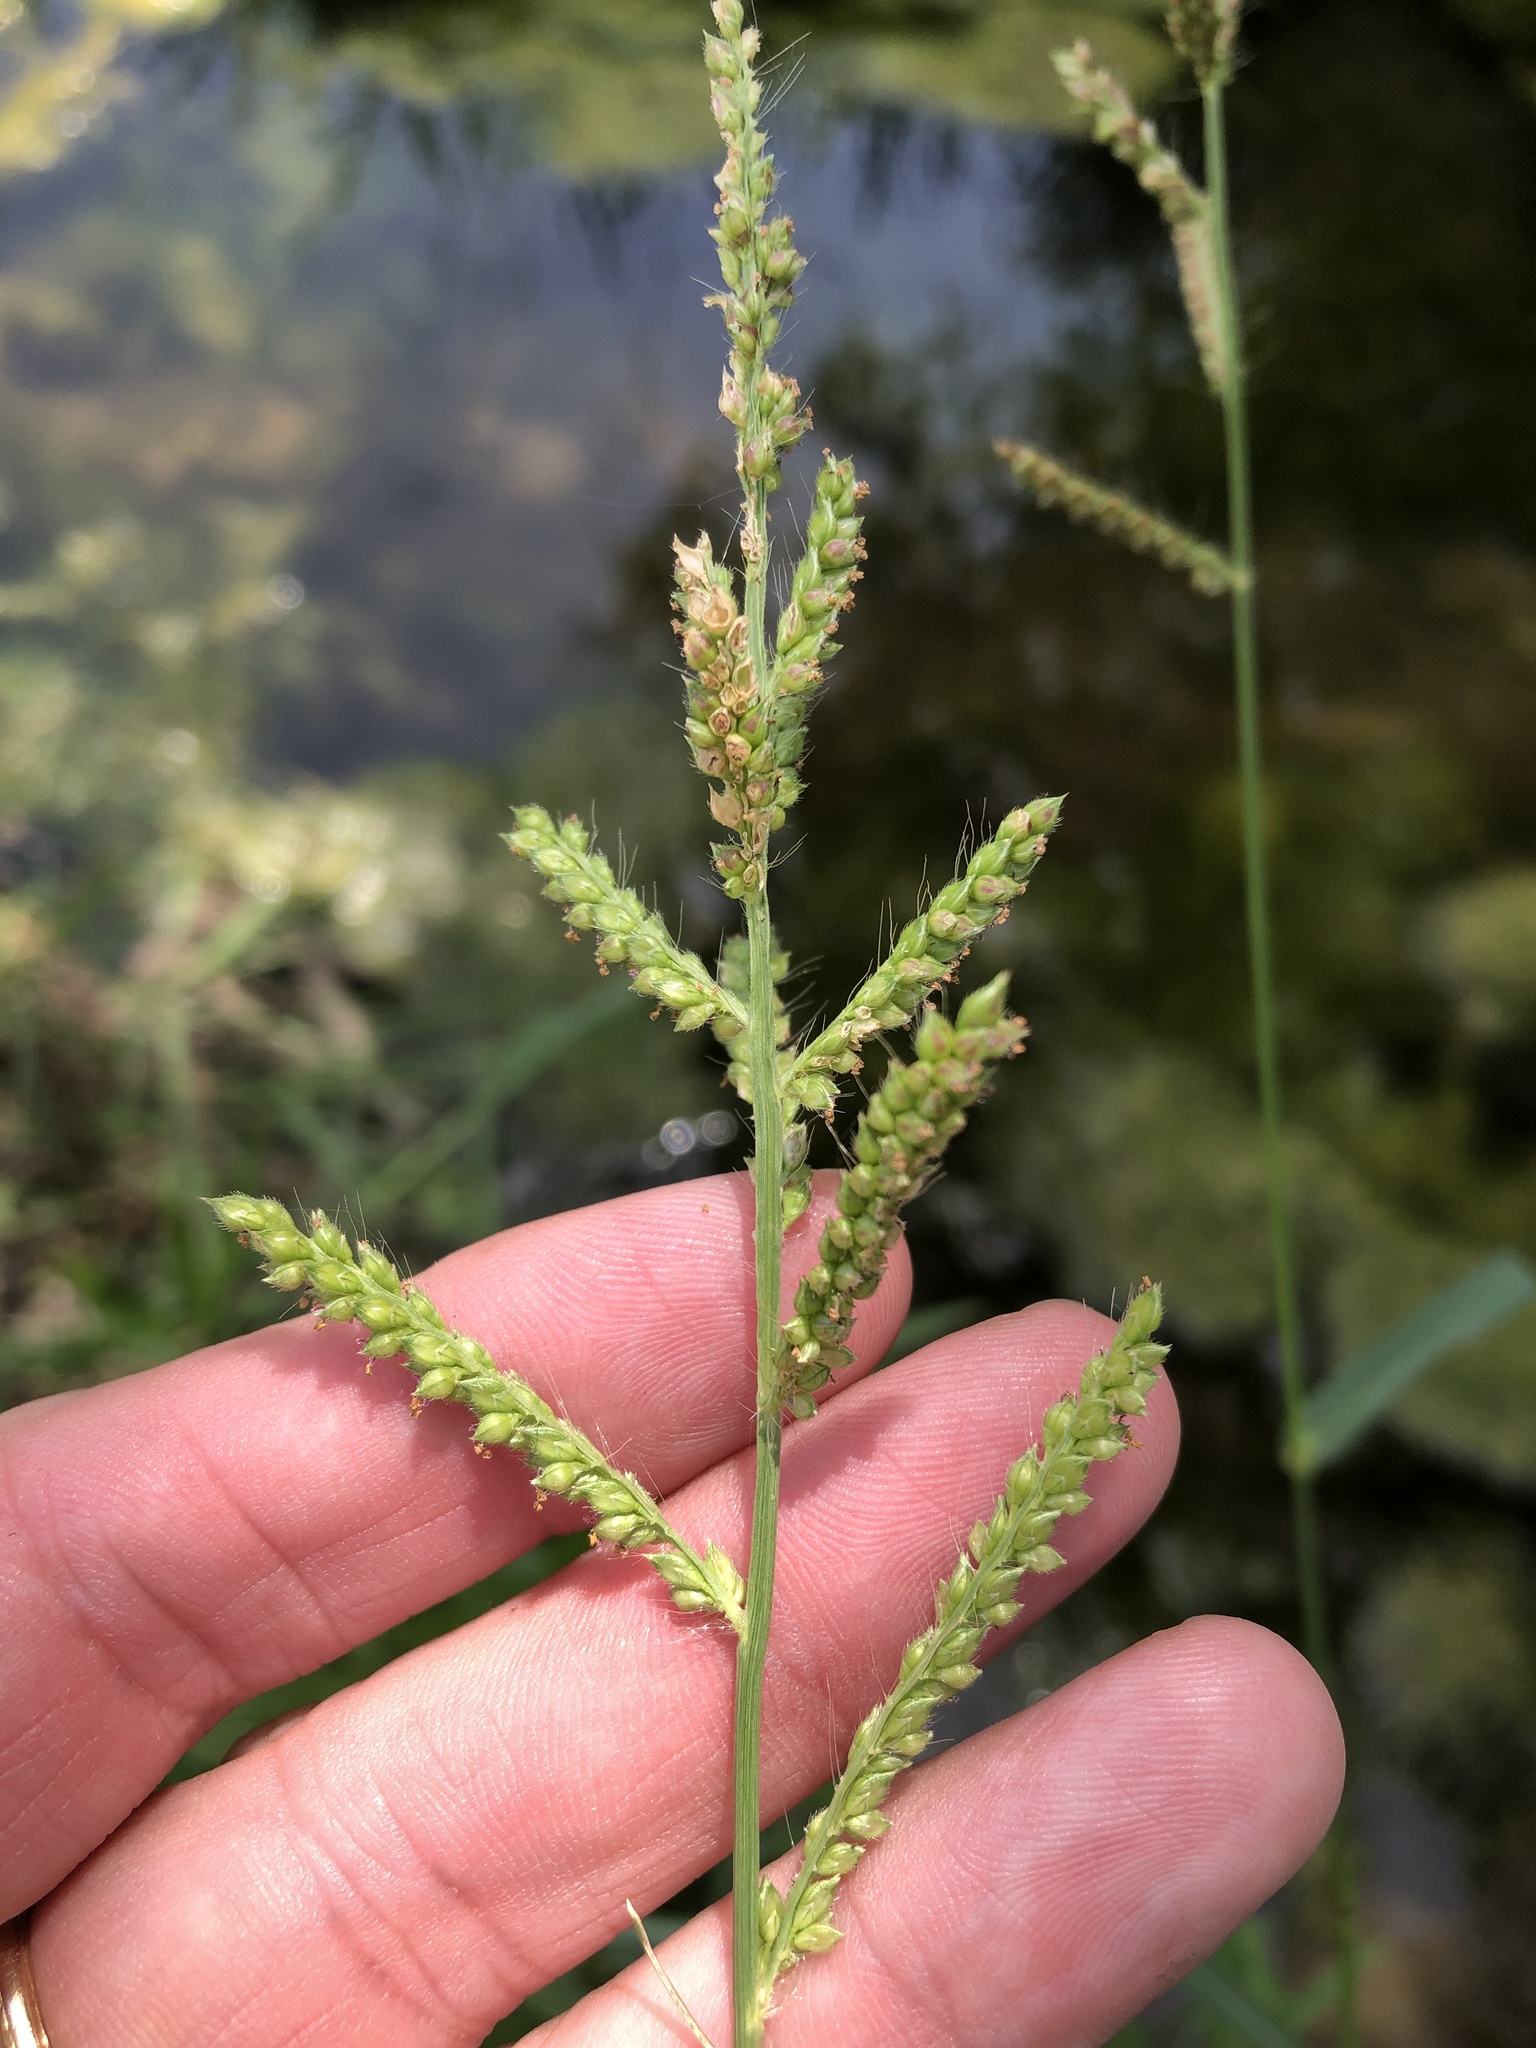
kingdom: Plantae
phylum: Tracheophyta
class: Liliopsida
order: Poales
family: Poaceae
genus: Echinochloa
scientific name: Echinochloa crus-galli
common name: Cockspur
